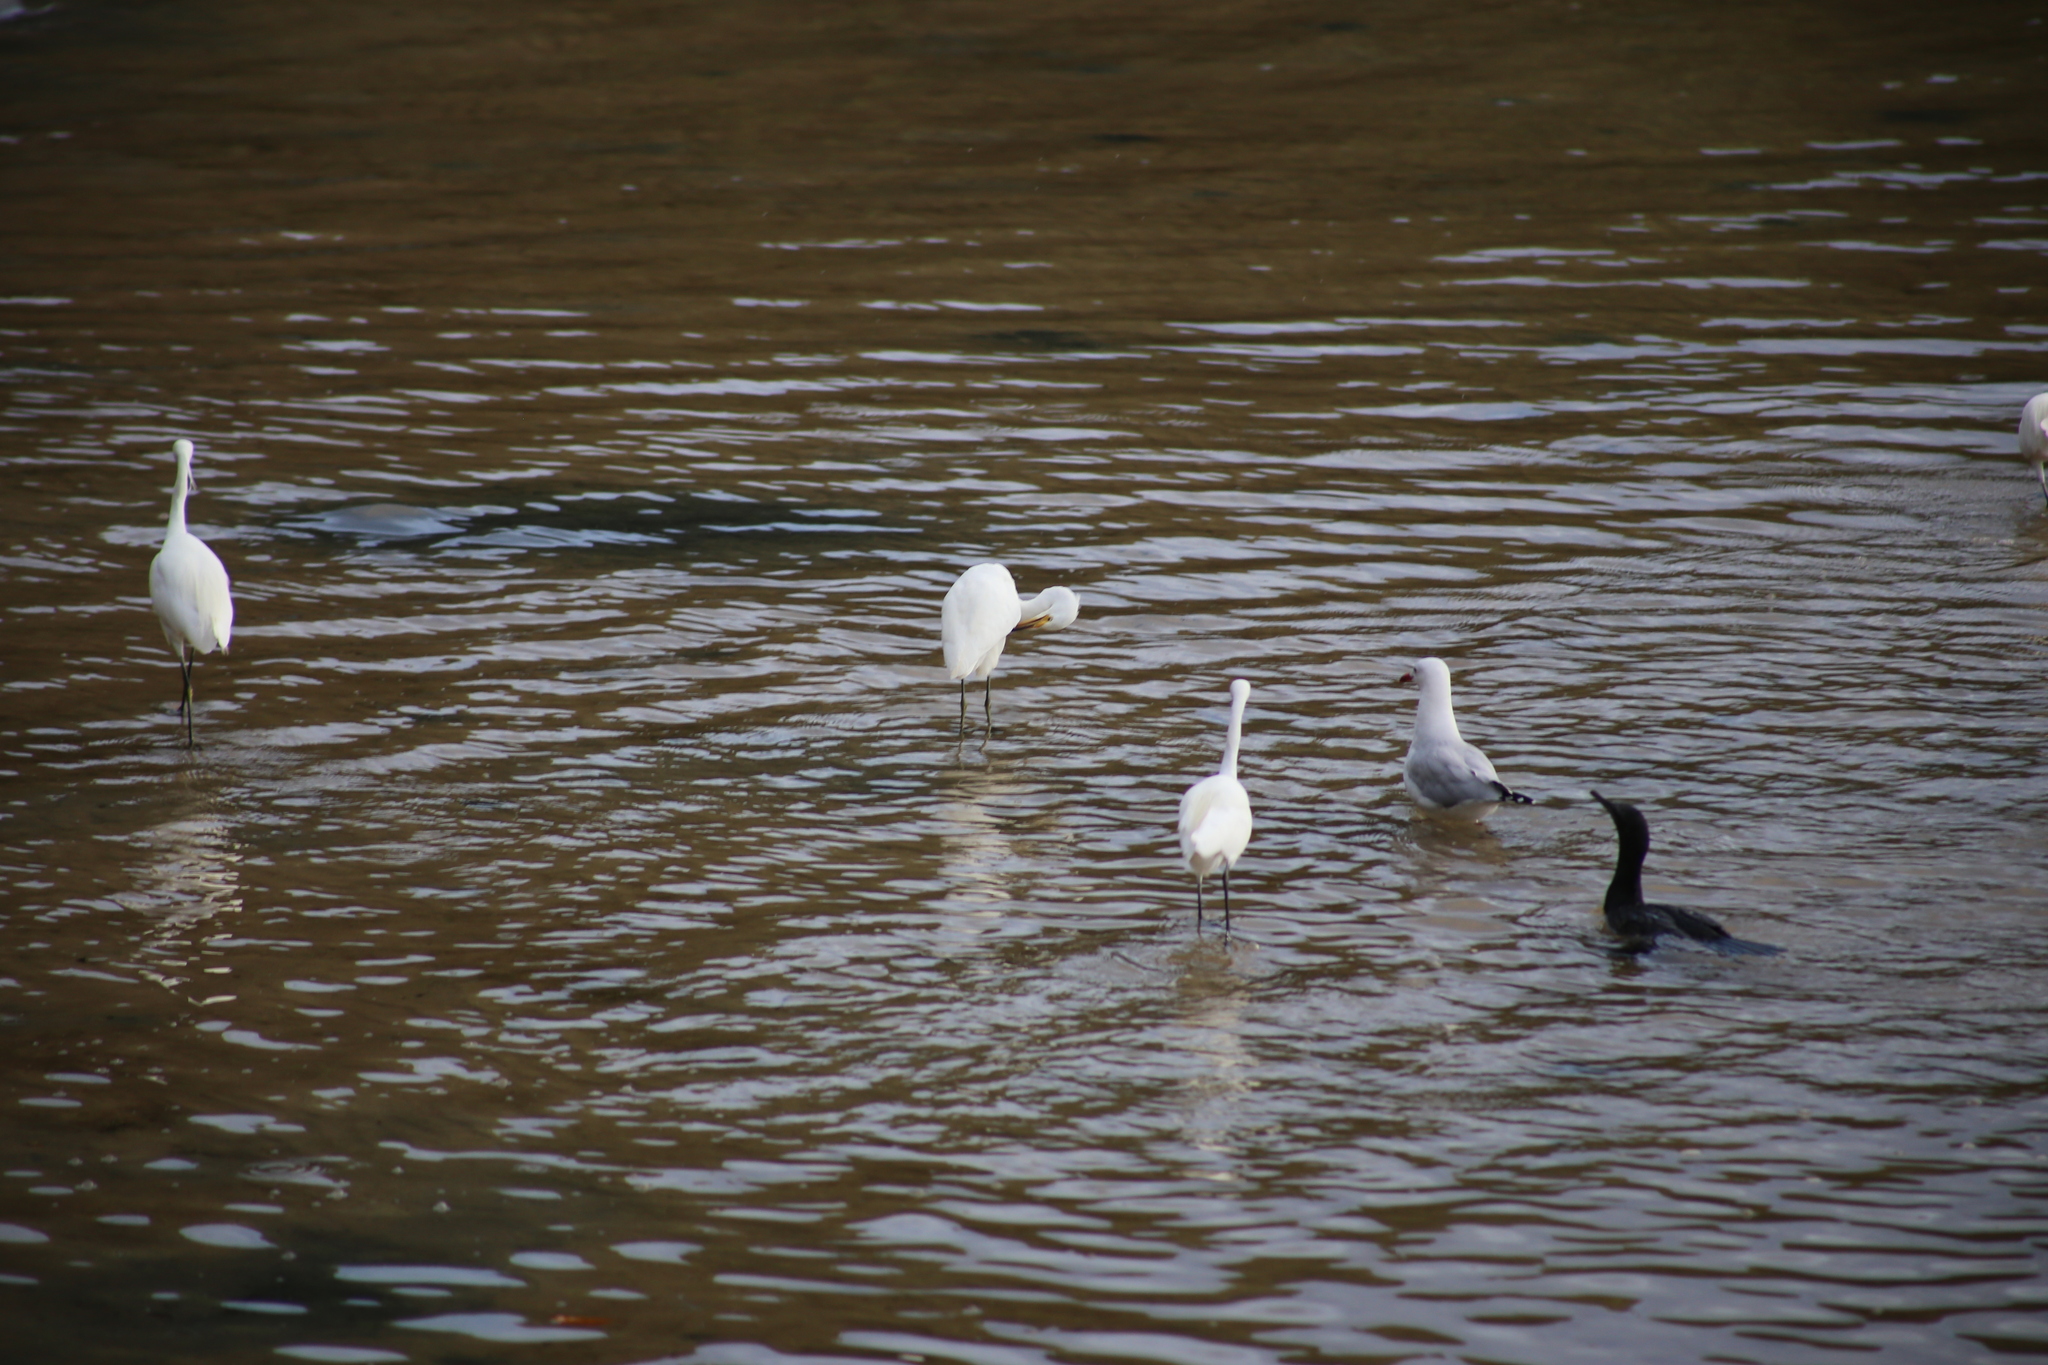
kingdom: Animalia
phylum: Chordata
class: Aves
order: Suliformes
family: Phalacrocoracidae
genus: Phalacrocorax
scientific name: Phalacrocorax sulcirostris
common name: Little black cormorant
